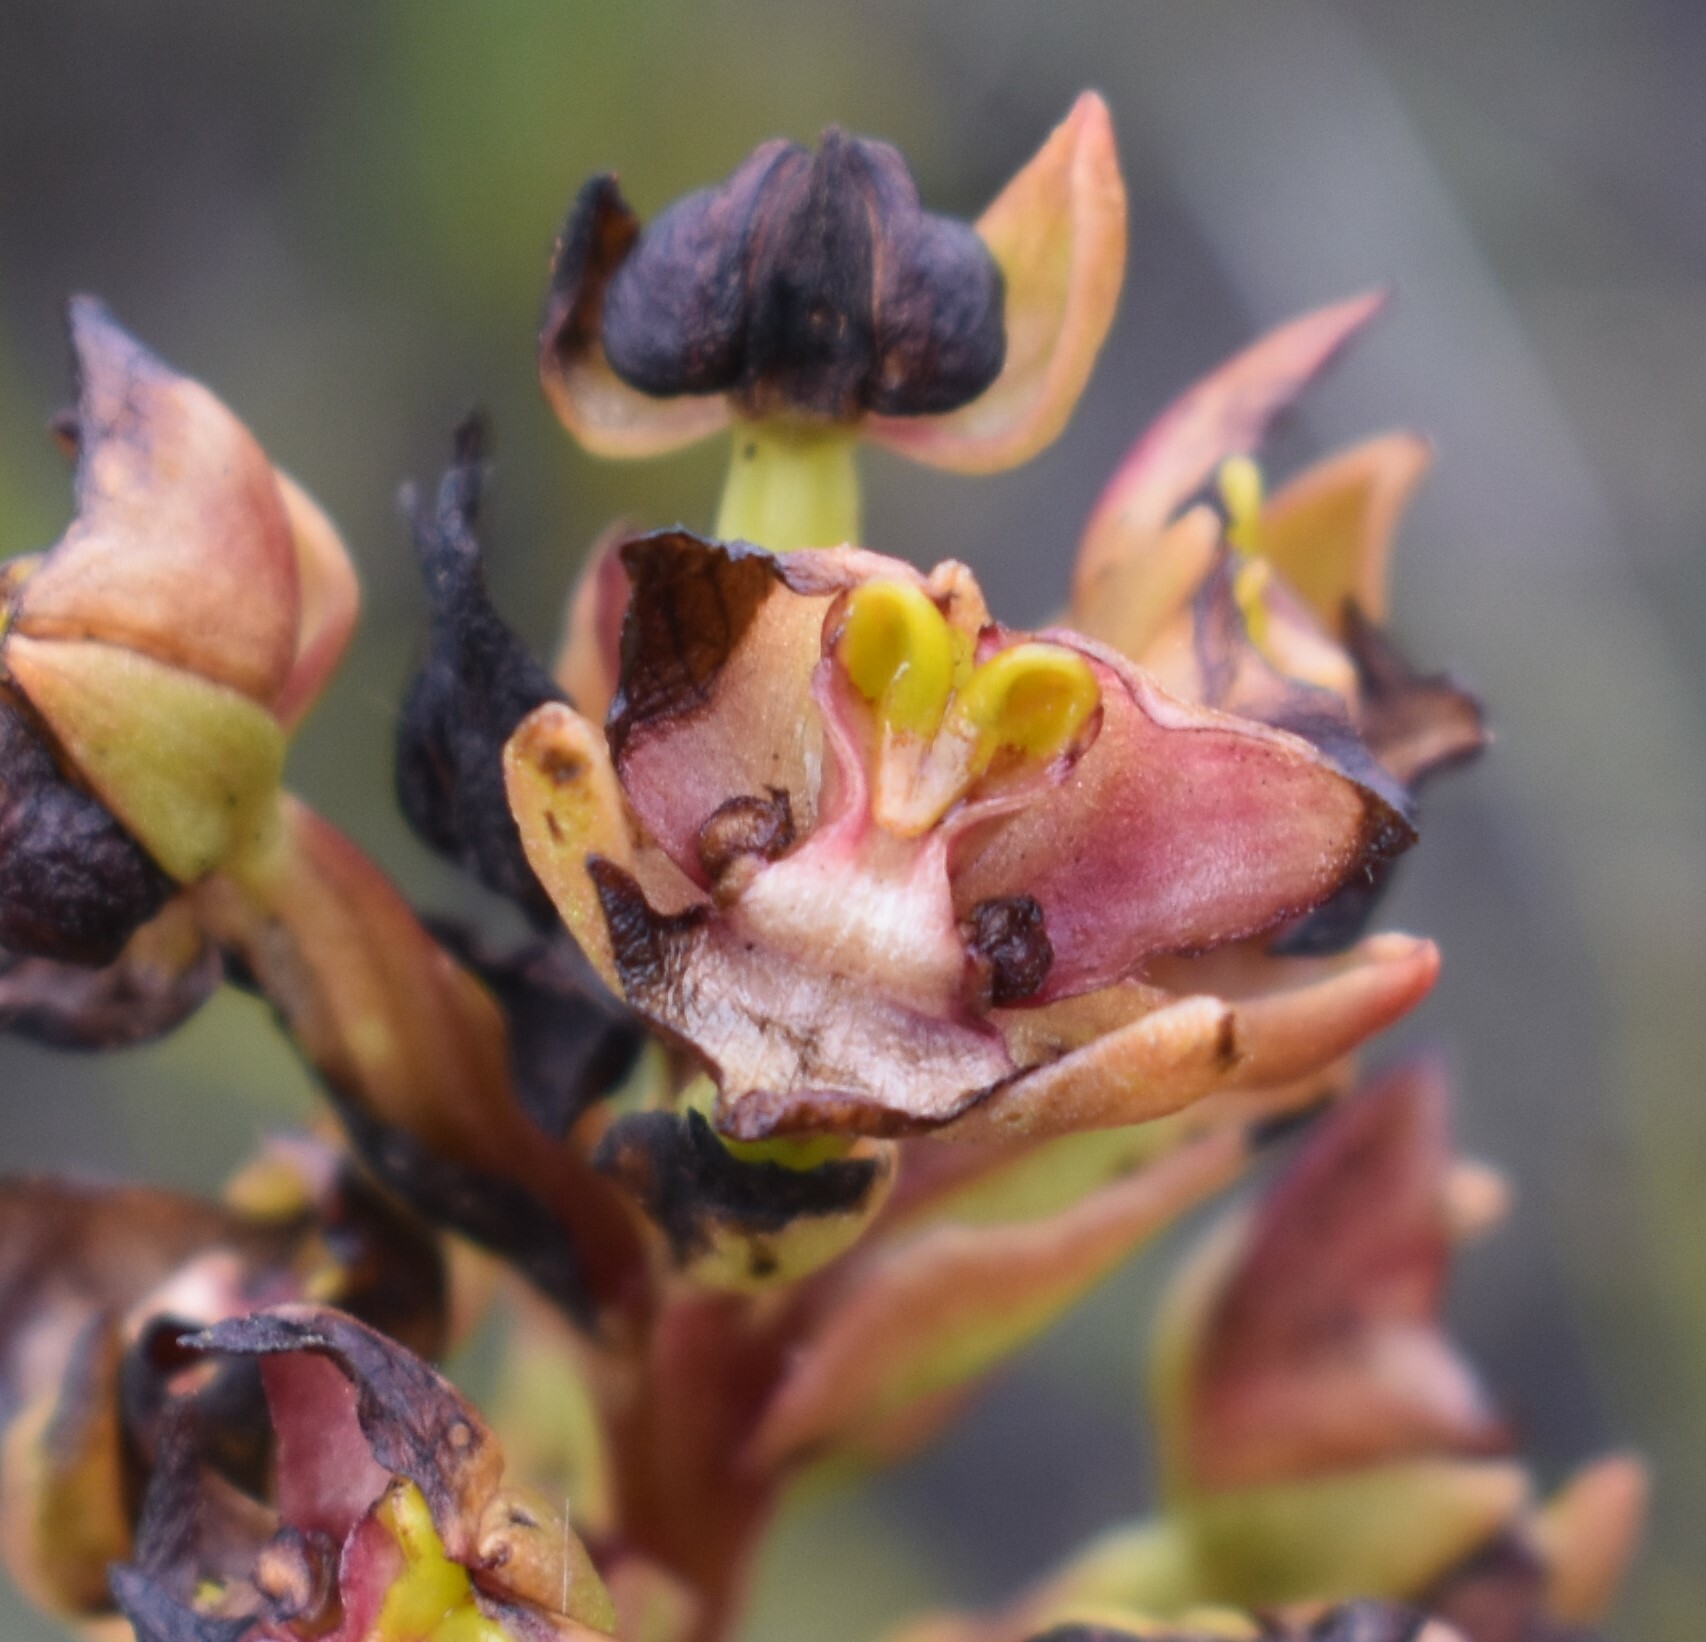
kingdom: Plantae
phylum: Tracheophyta
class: Liliopsida
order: Asparagales
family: Orchidaceae
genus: Evotella
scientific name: Evotella rubiginosa
